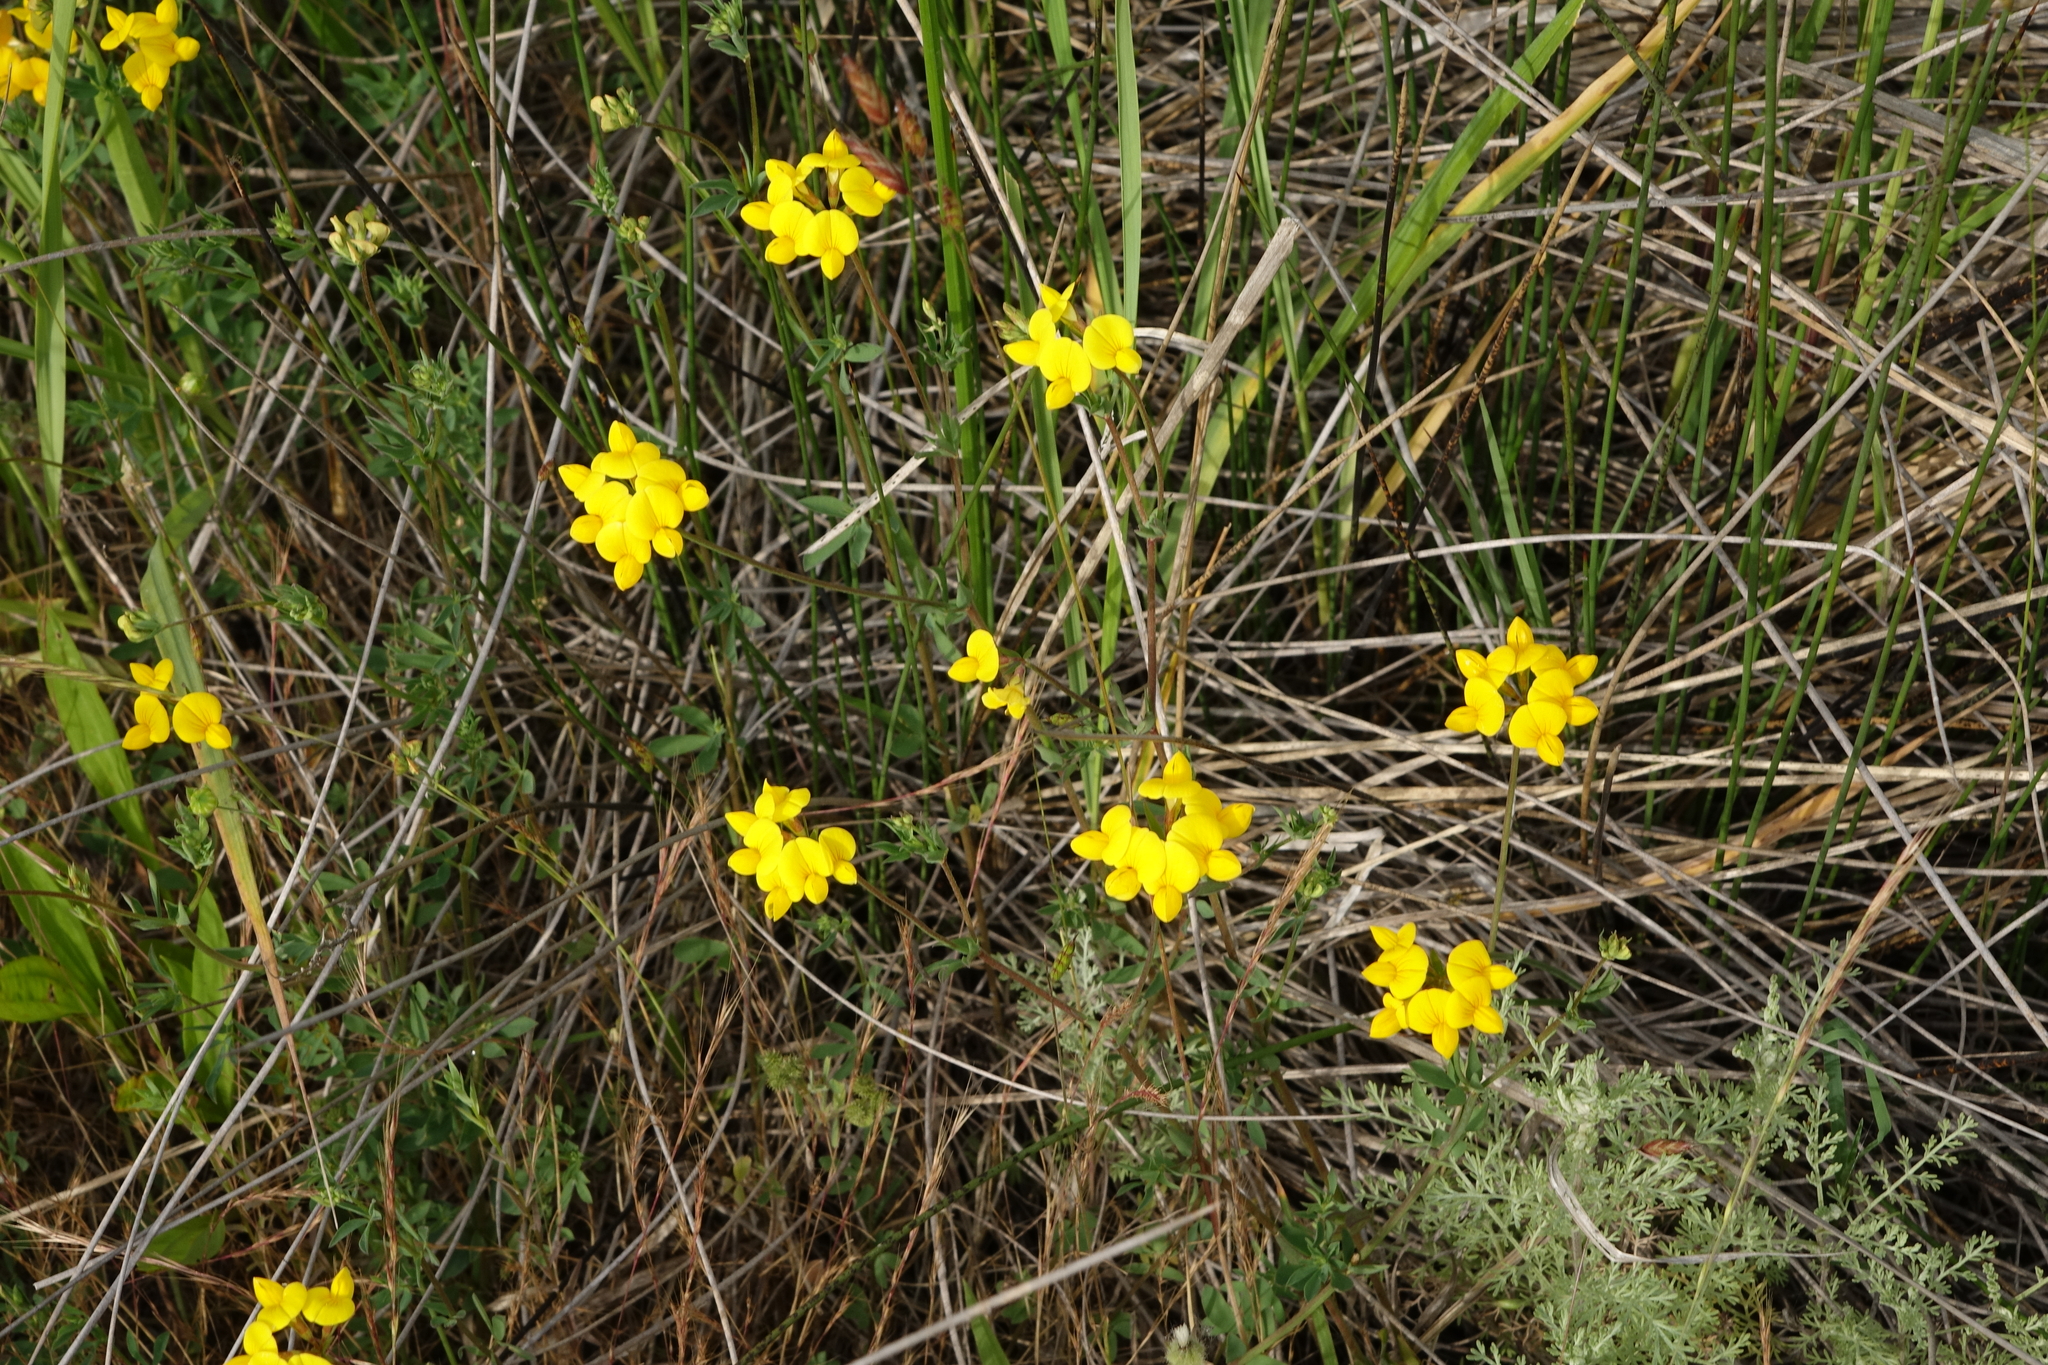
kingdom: Plantae
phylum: Tracheophyta
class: Magnoliopsida
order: Fabales
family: Fabaceae
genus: Lotus
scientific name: Lotus corniculatus
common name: Common bird's-foot-trefoil
